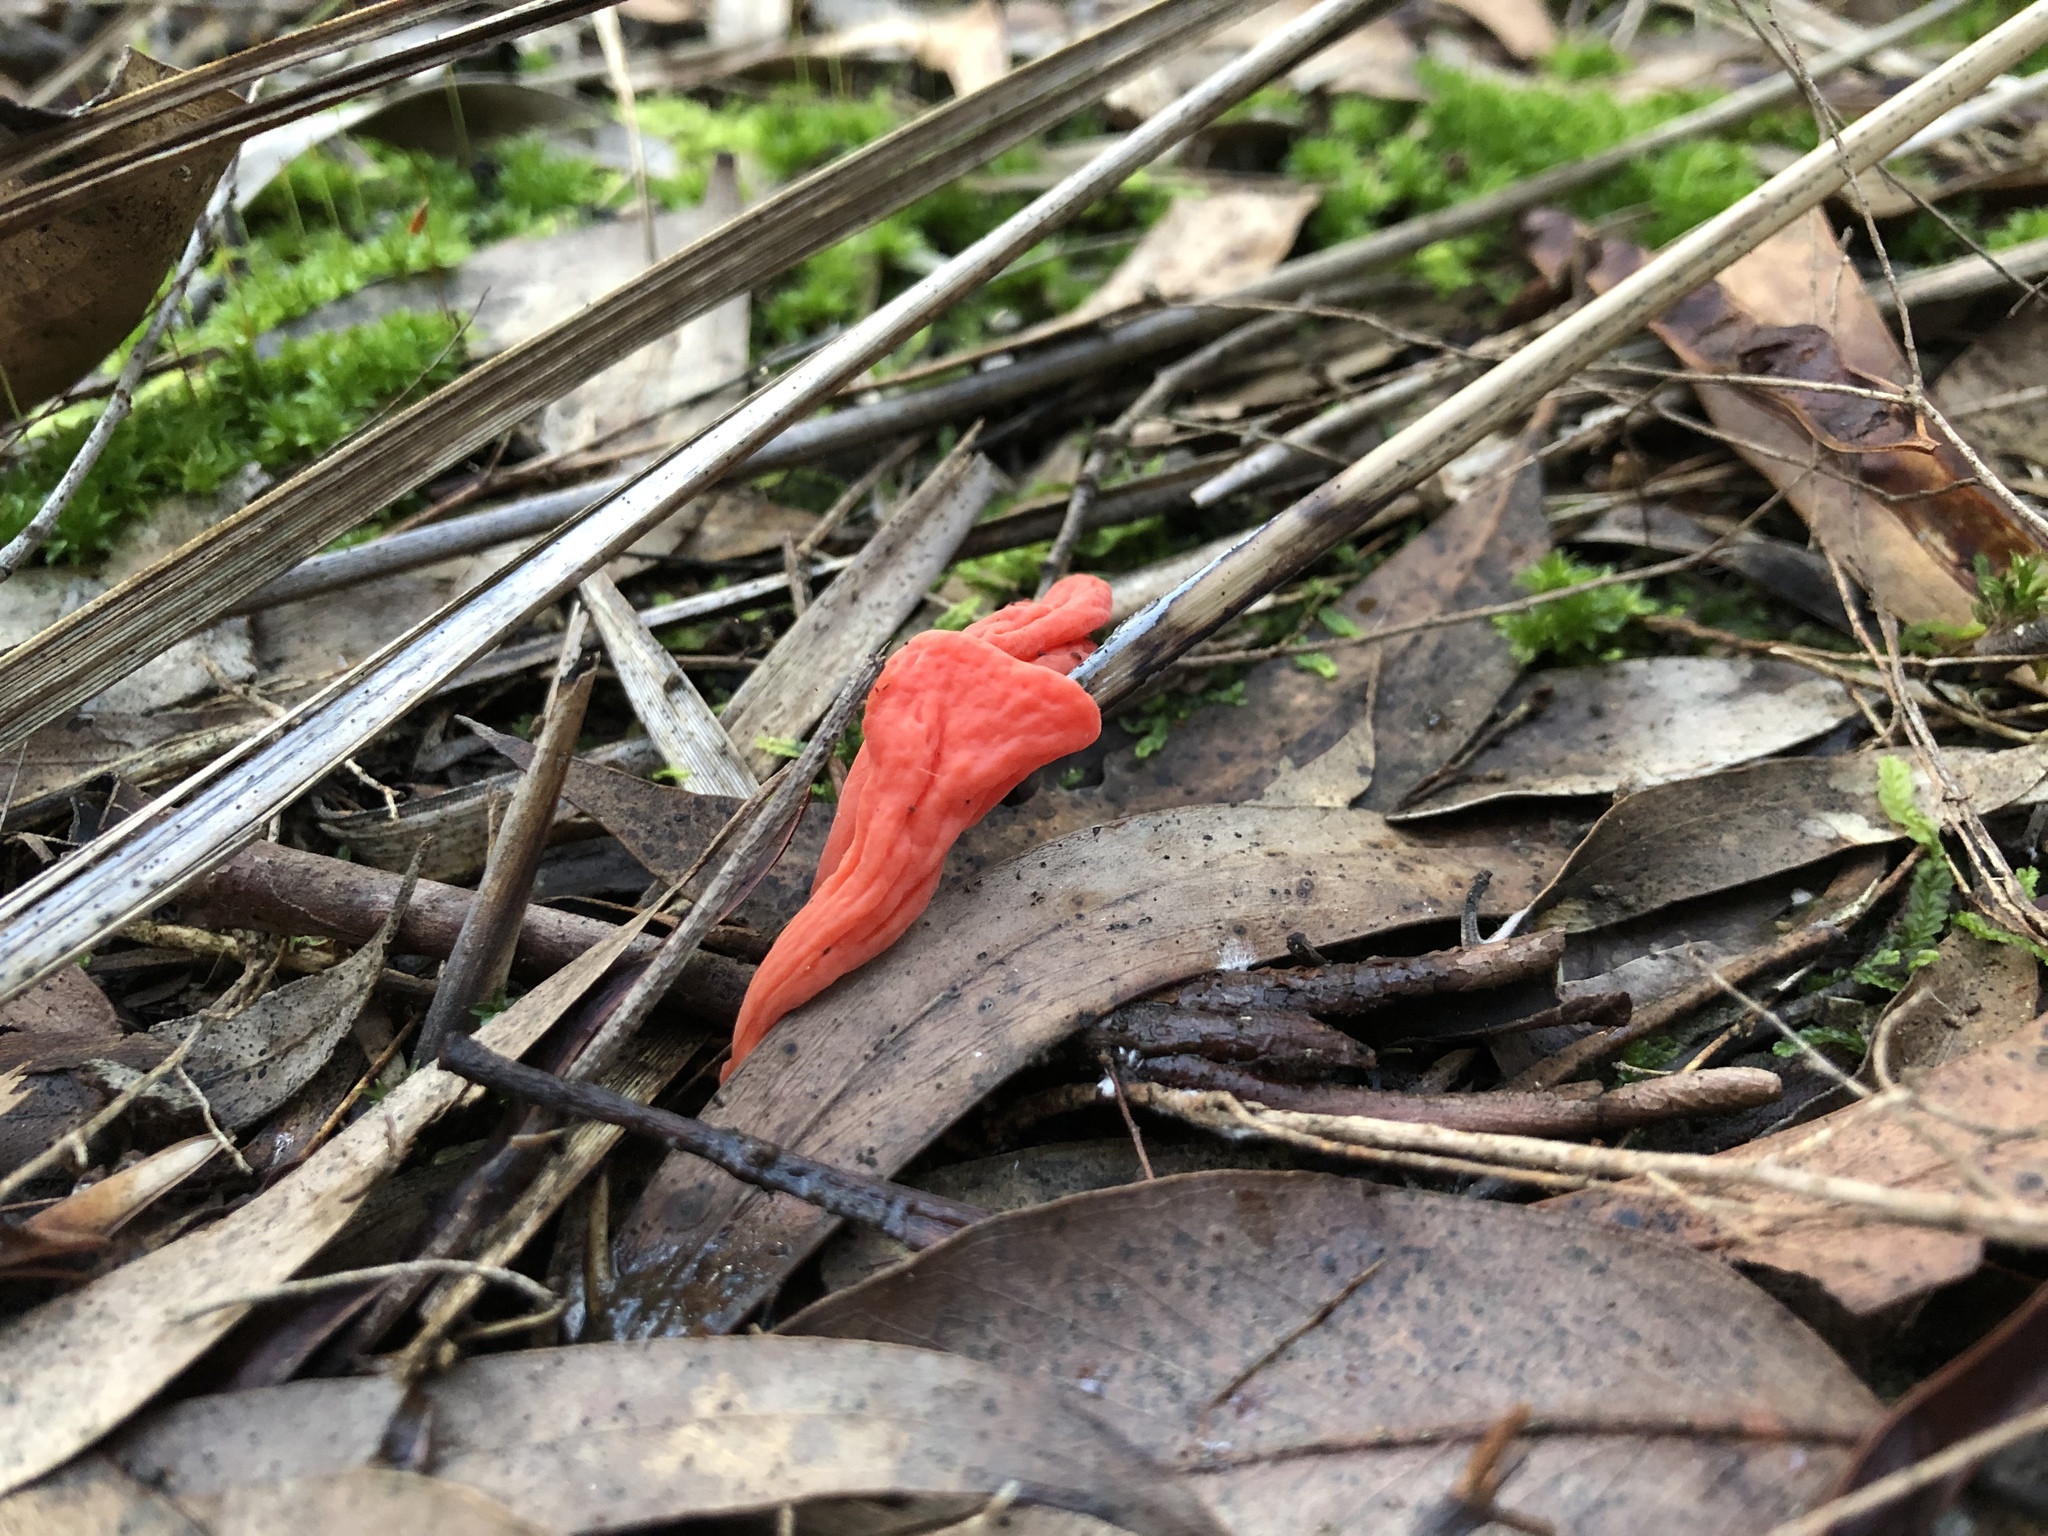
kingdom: Fungi
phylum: Basidiomycota
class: Agaricomycetes
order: Agaricales
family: Clavariaceae
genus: Clavulinopsis
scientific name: Clavulinopsis sulcata
